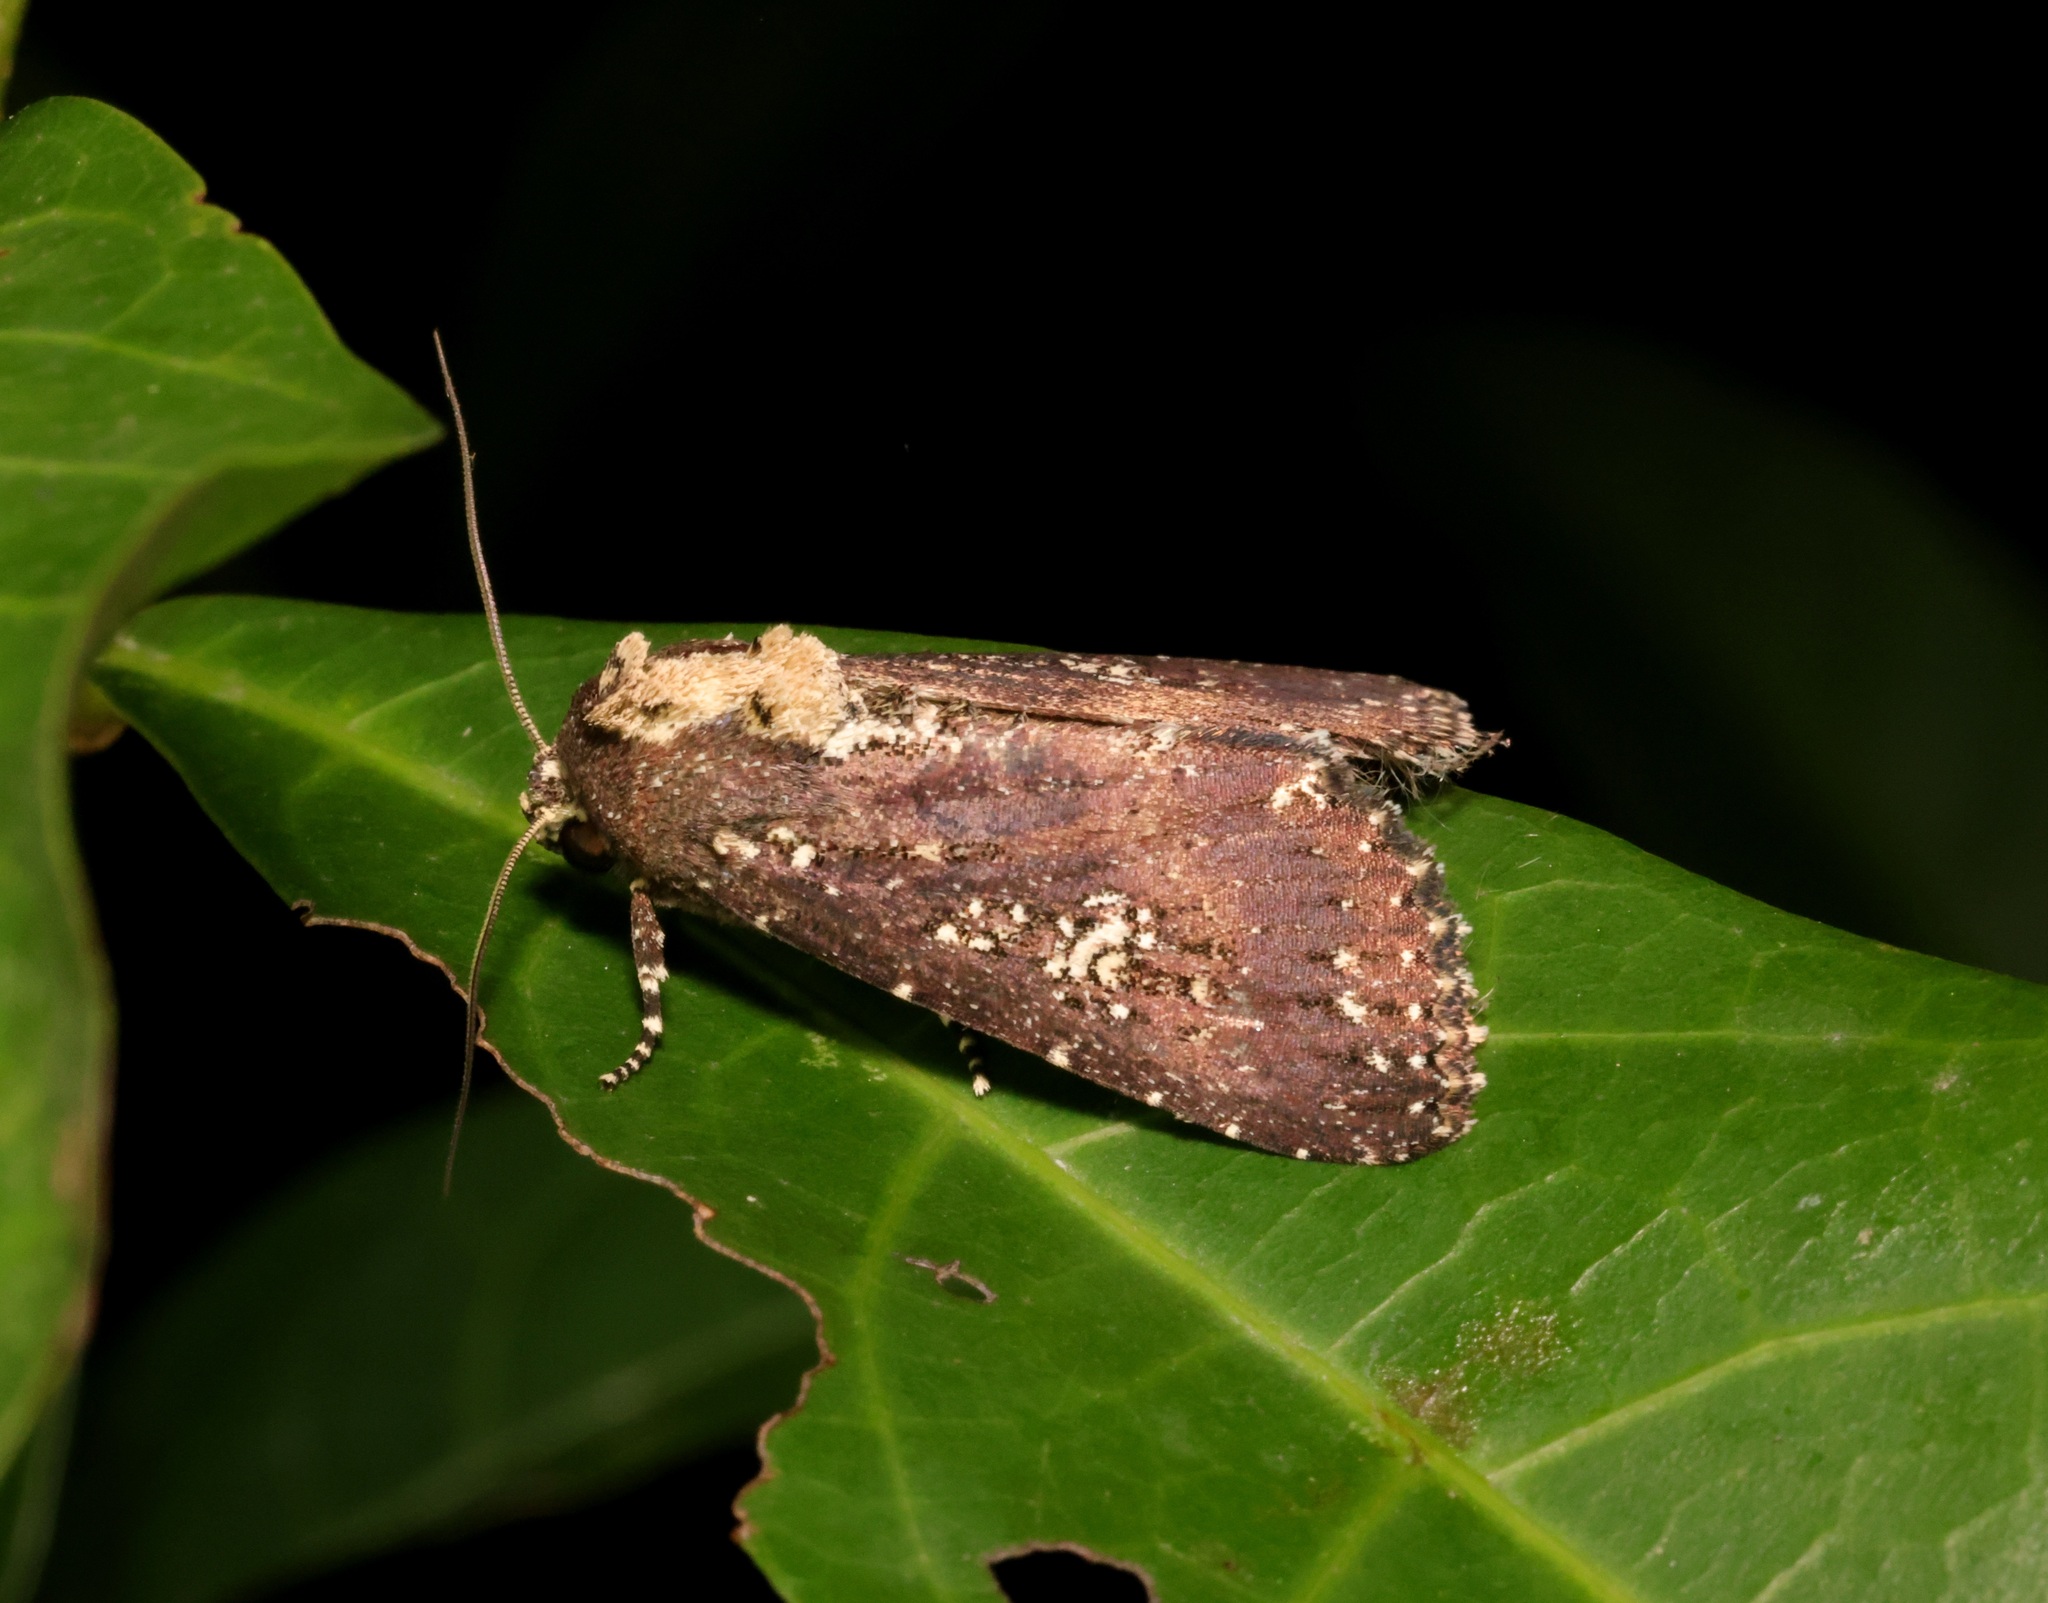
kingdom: Animalia
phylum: Arthropoda
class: Insecta
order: Lepidoptera
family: Noctuidae
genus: Condica
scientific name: Condica albigutta
